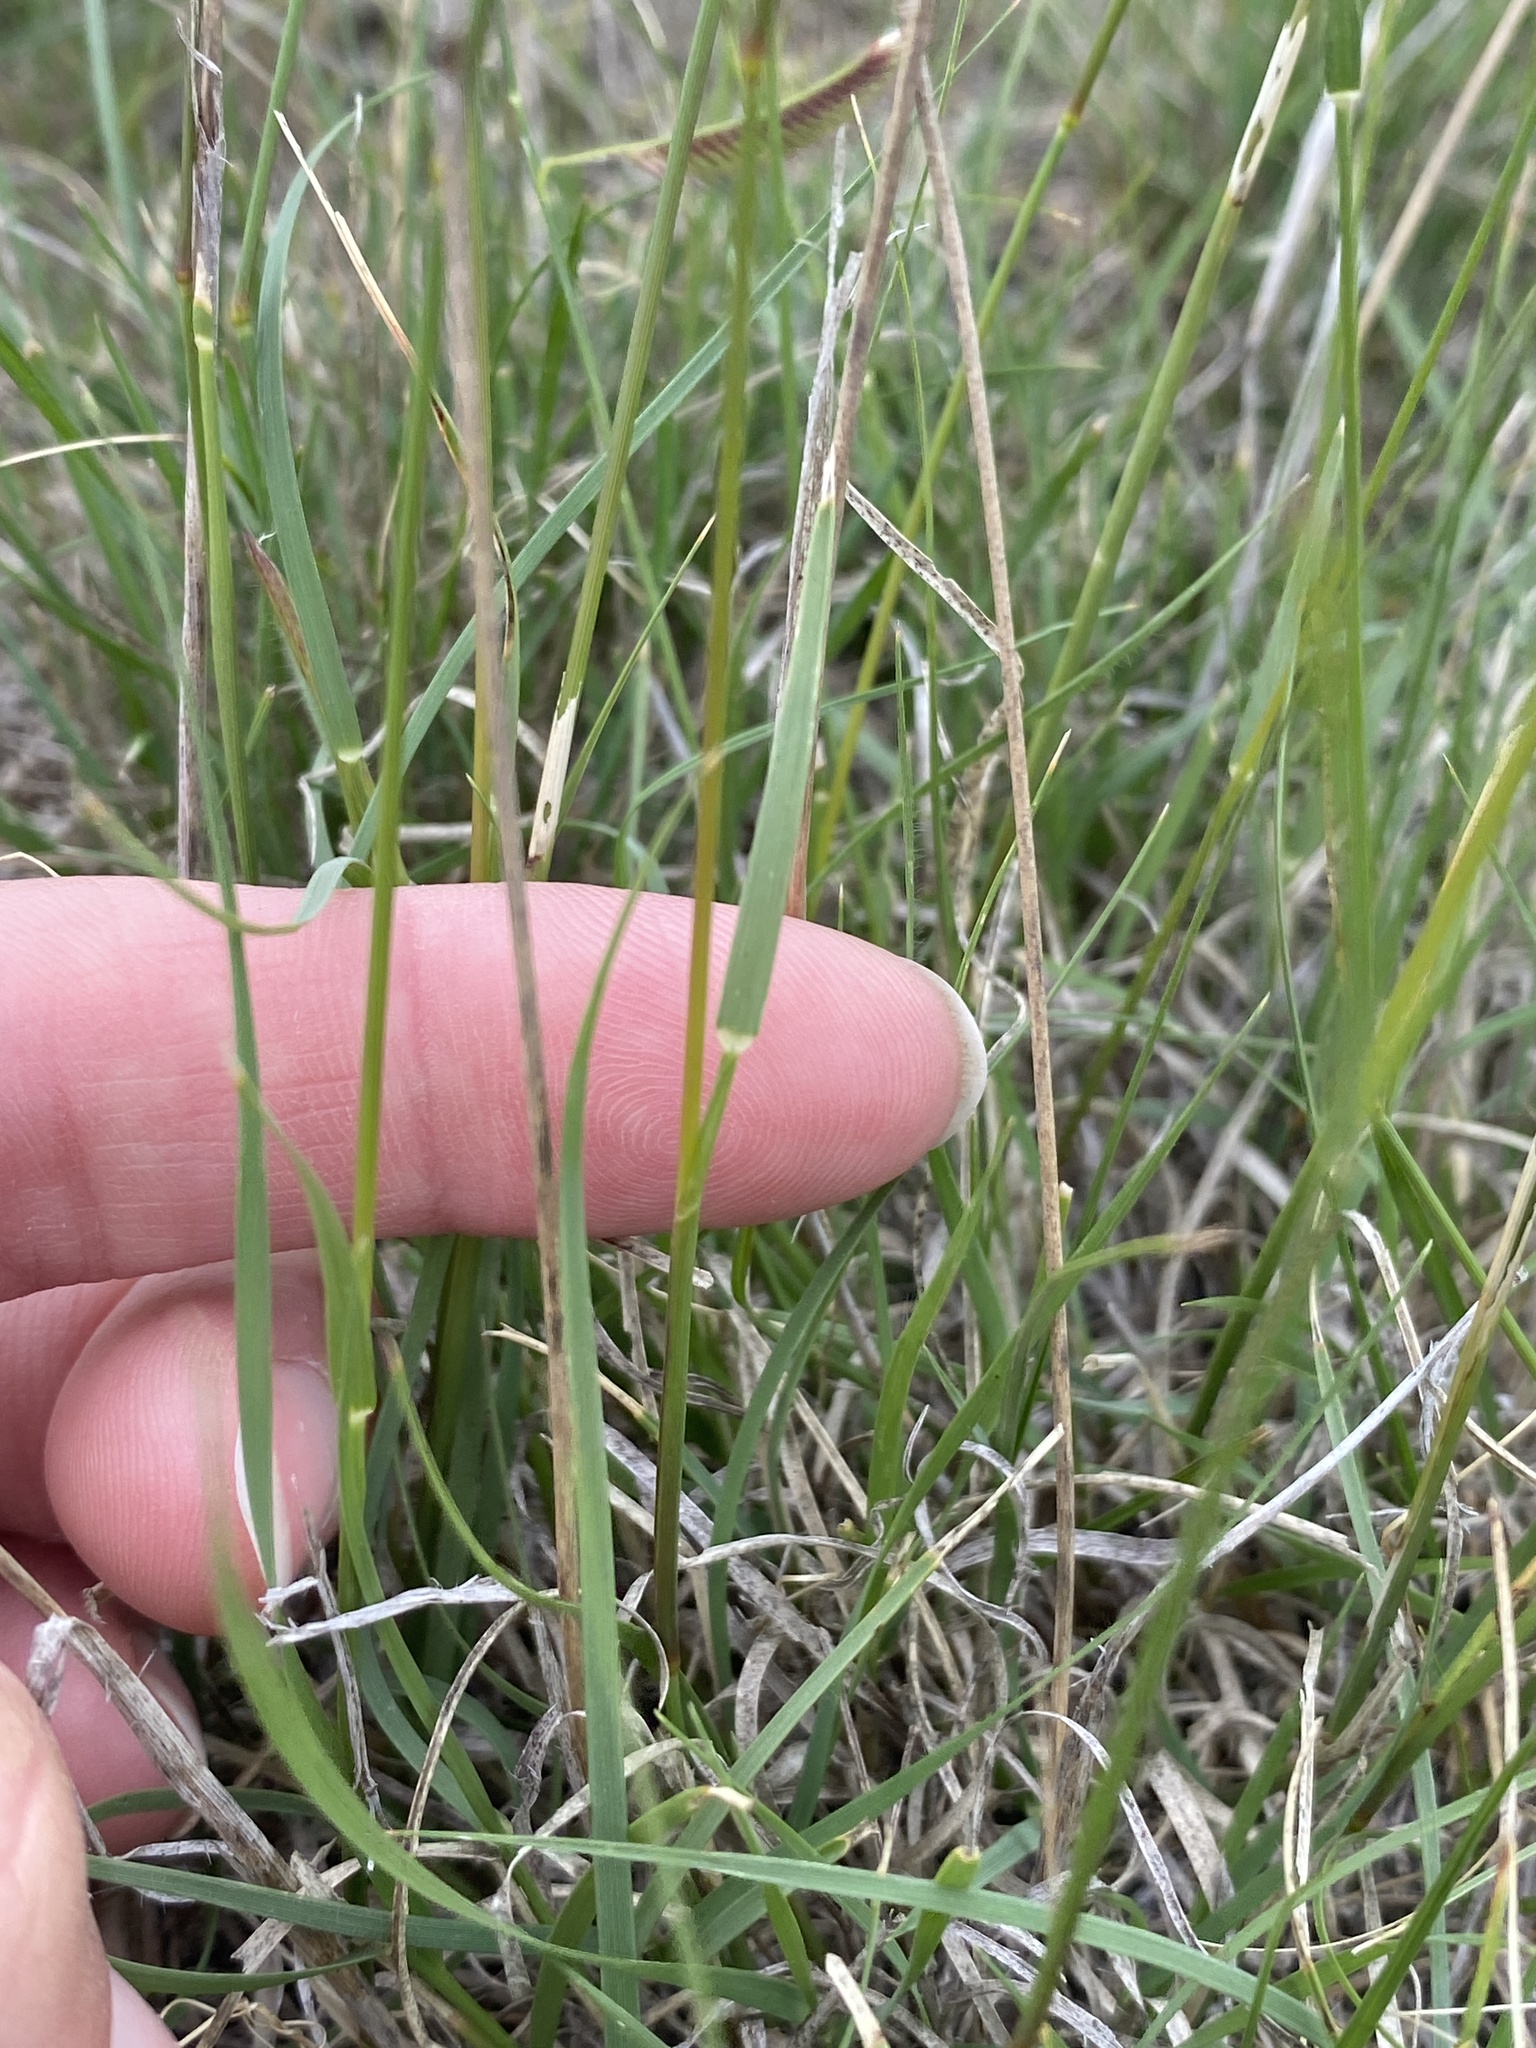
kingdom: Plantae
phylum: Tracheophyta
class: Liliopsida
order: Poales
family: Poaceae
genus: Bouteloua
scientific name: Bouteloua gracilis
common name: Blue grama
